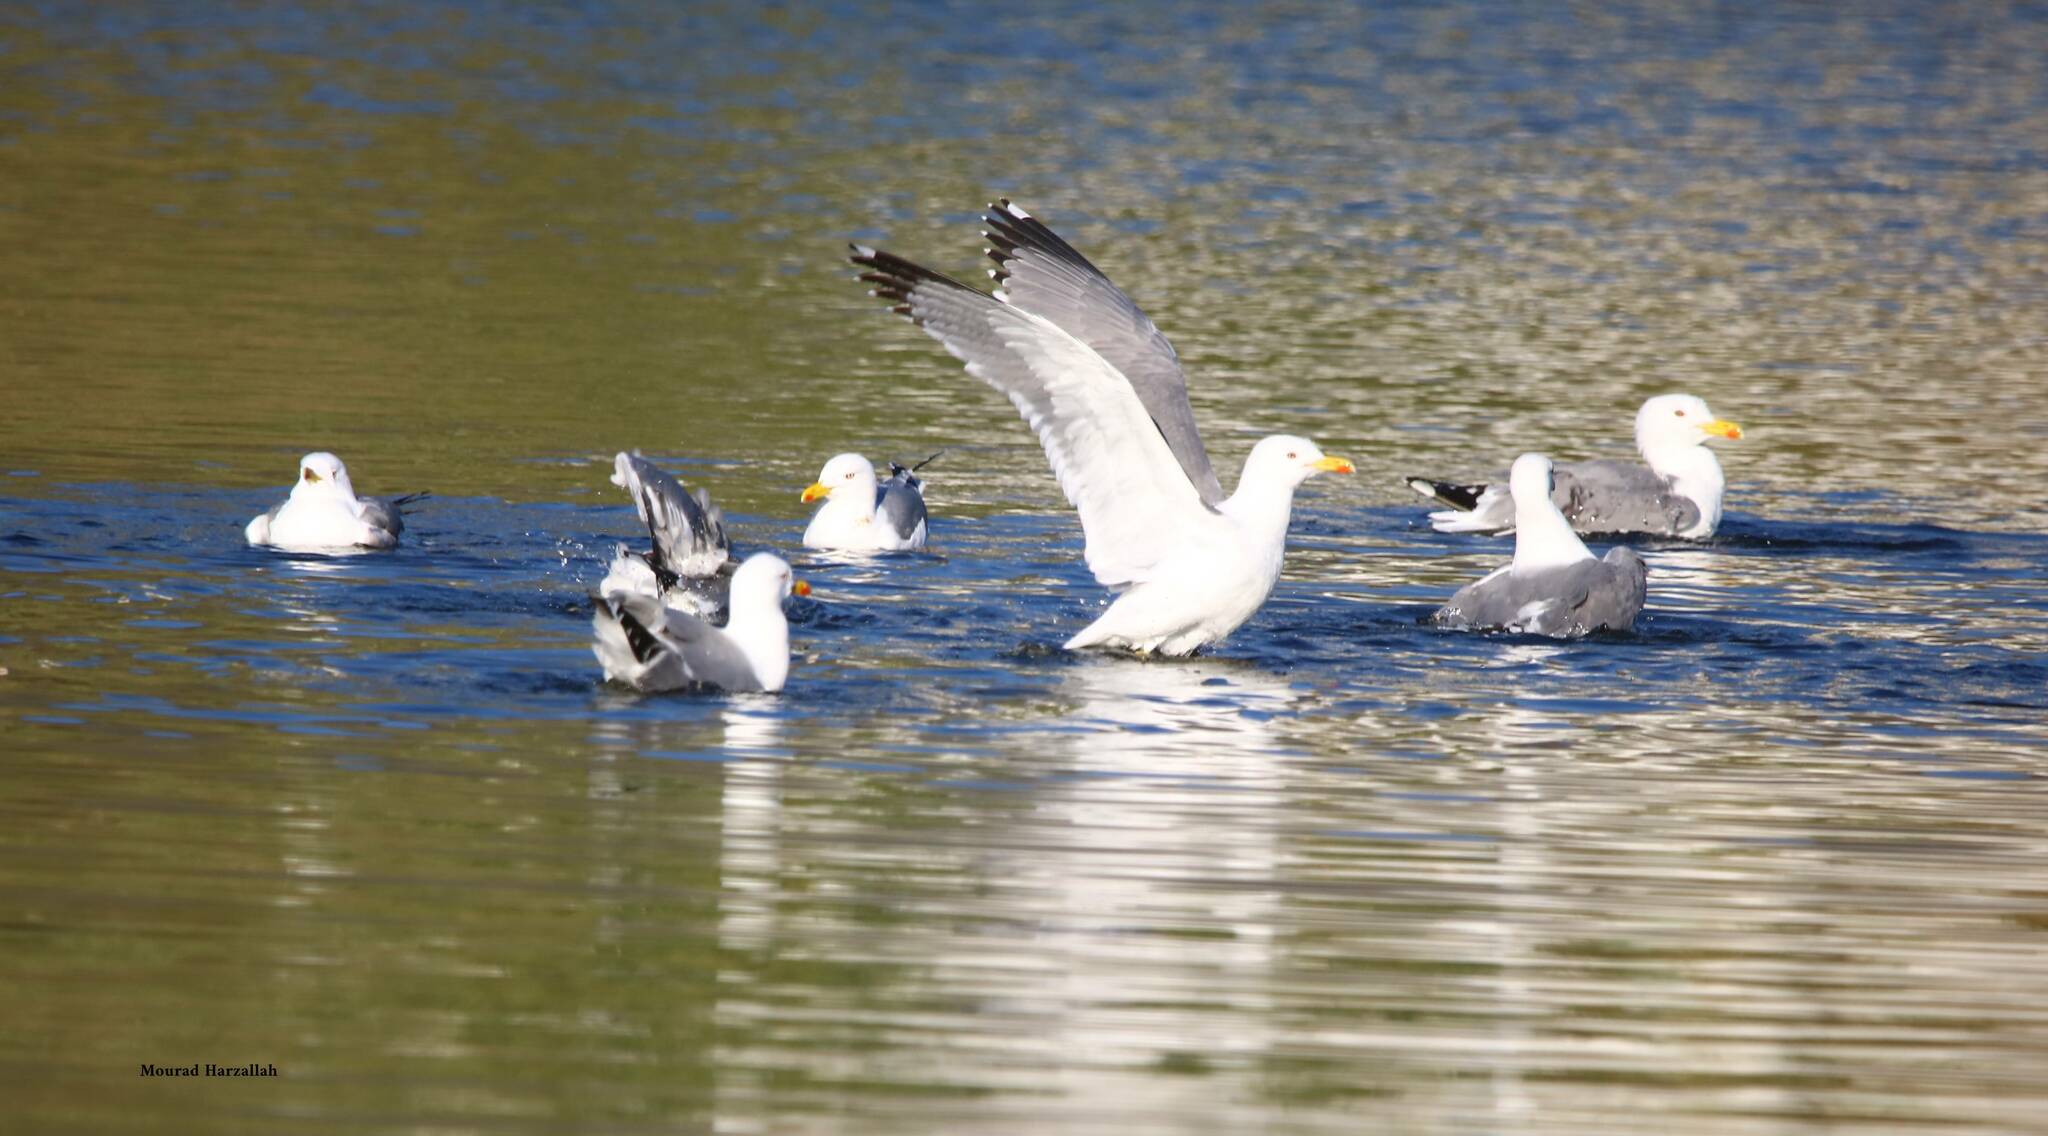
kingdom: Animalia
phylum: Chordata
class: Aves
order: Charadriiformes
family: Laridae
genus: Larus
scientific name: Larus michahellis
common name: Yellow-legged gull
